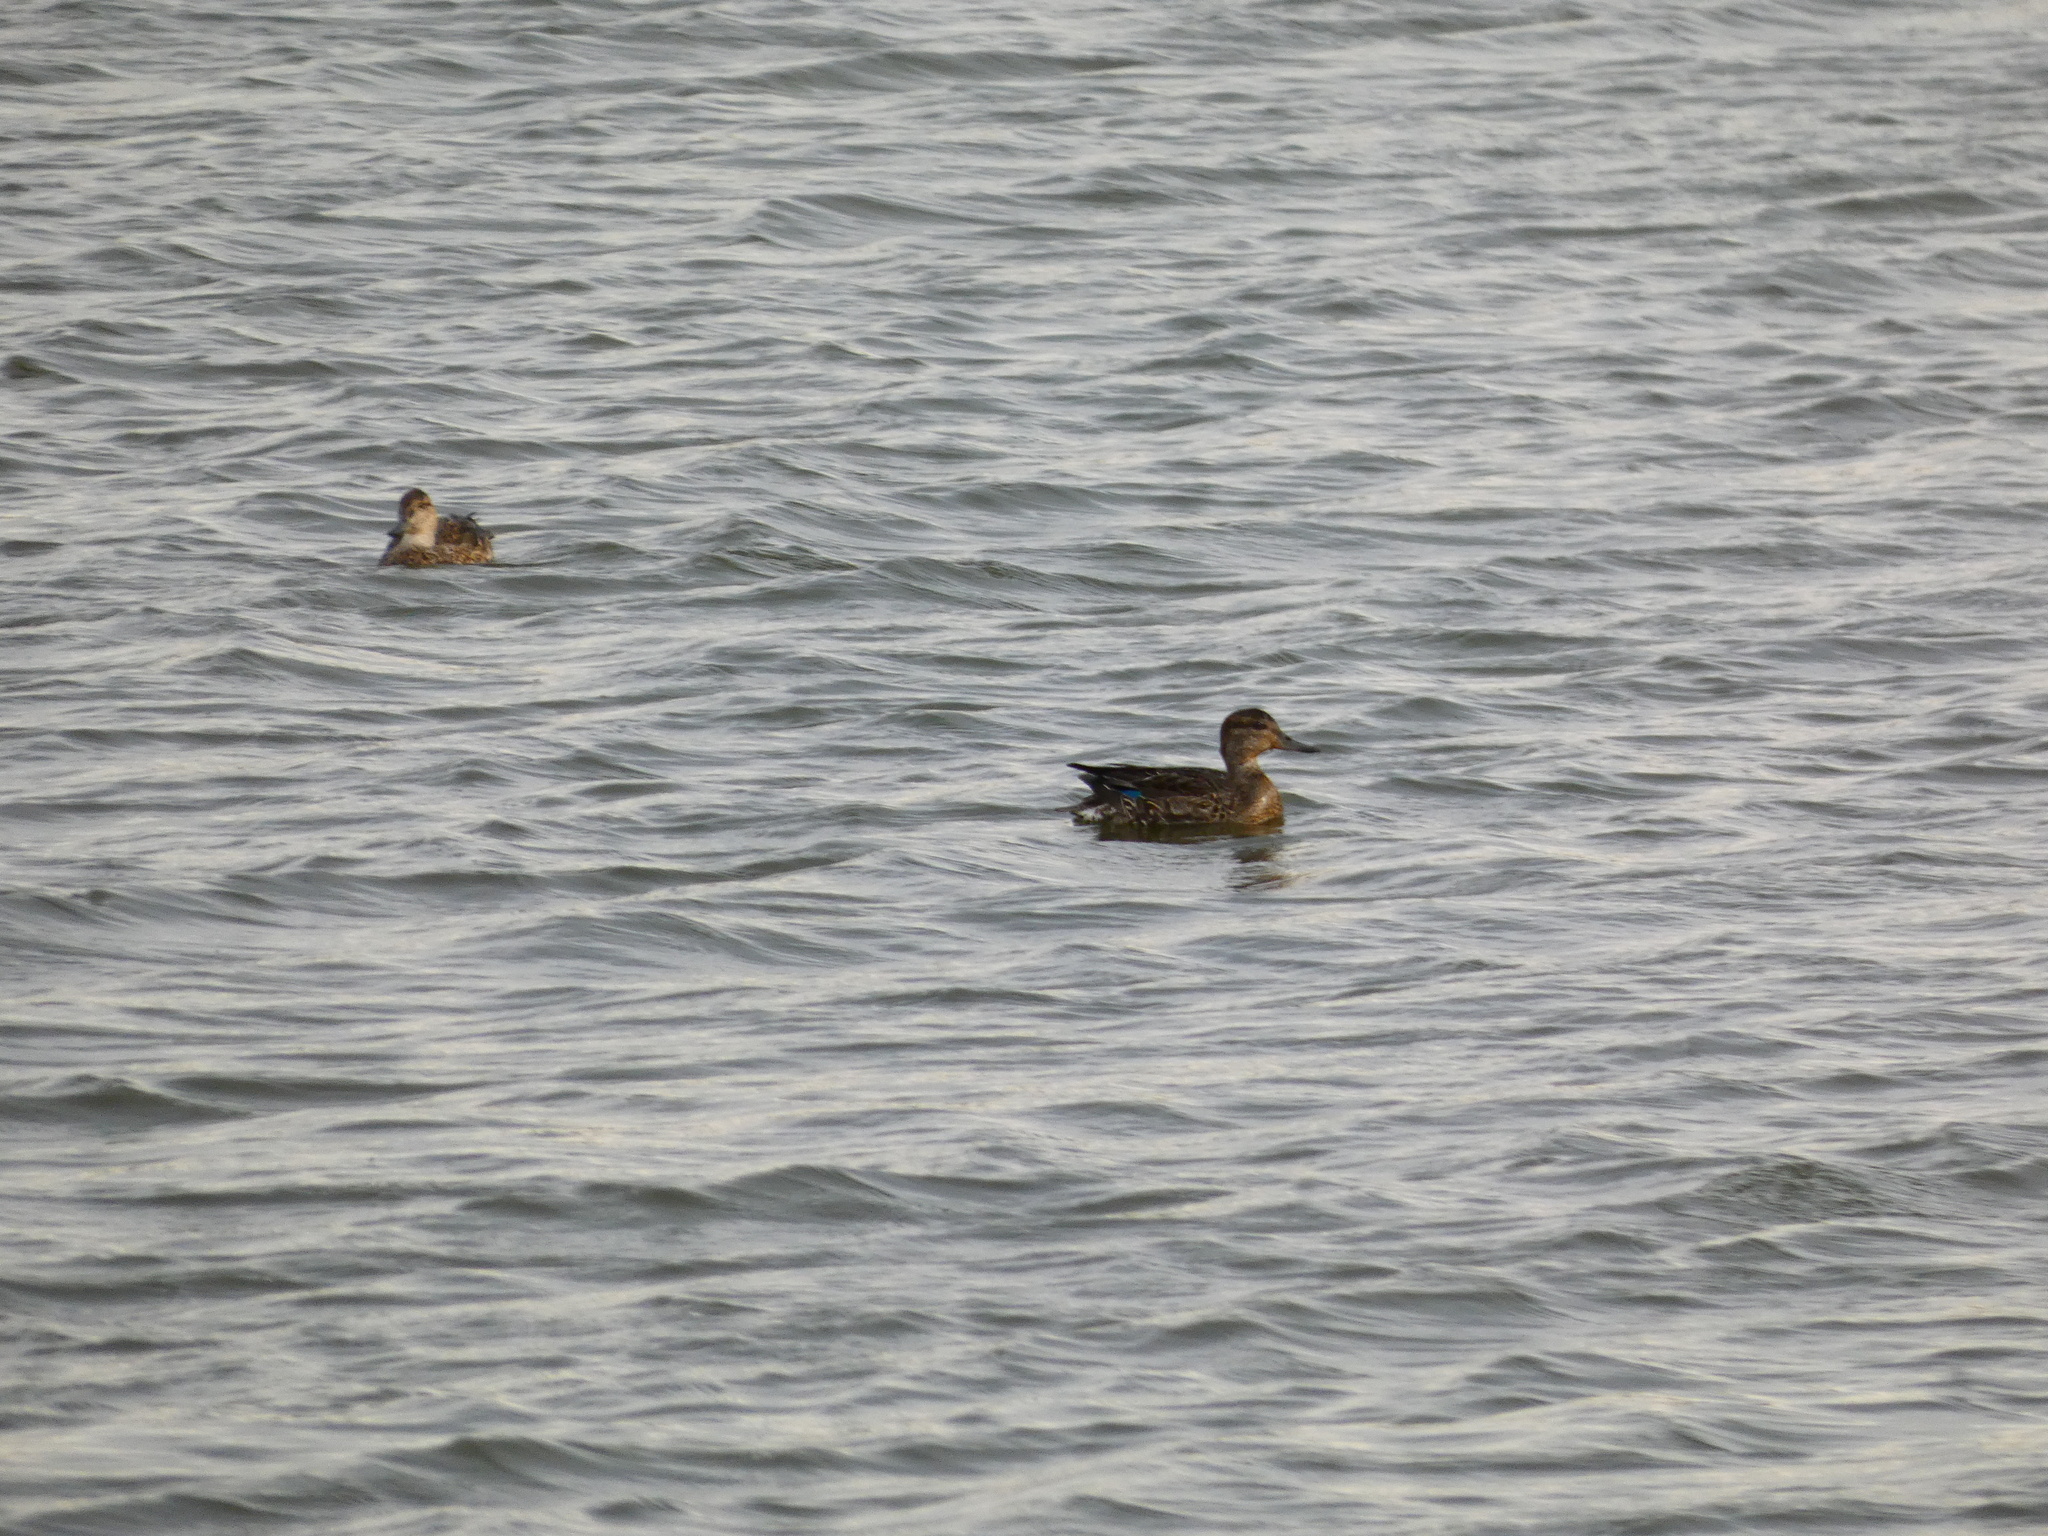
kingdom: Animalia
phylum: Chordata
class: Aves
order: Anseriformes
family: Anatidae
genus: Anas
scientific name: Anas crecca
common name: Eurasian teal
